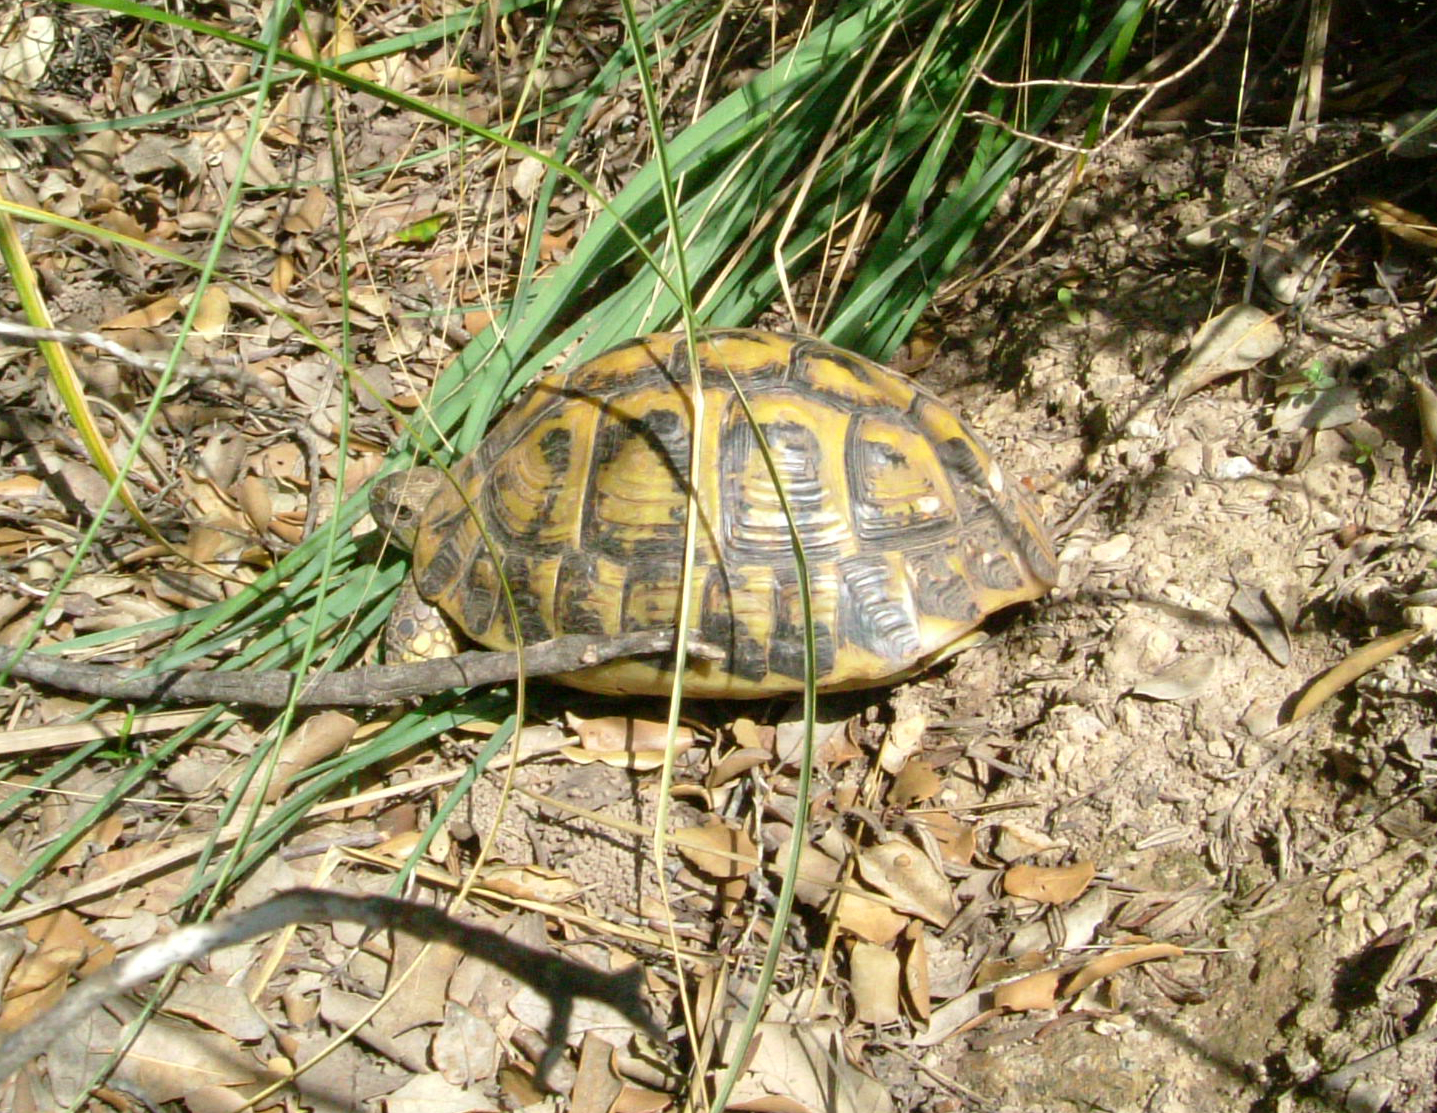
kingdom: Animalia
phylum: Chordata
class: Testudines
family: Testudinidae
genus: Testudo
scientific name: Testudo hermanni
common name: Hermann's tortoise
